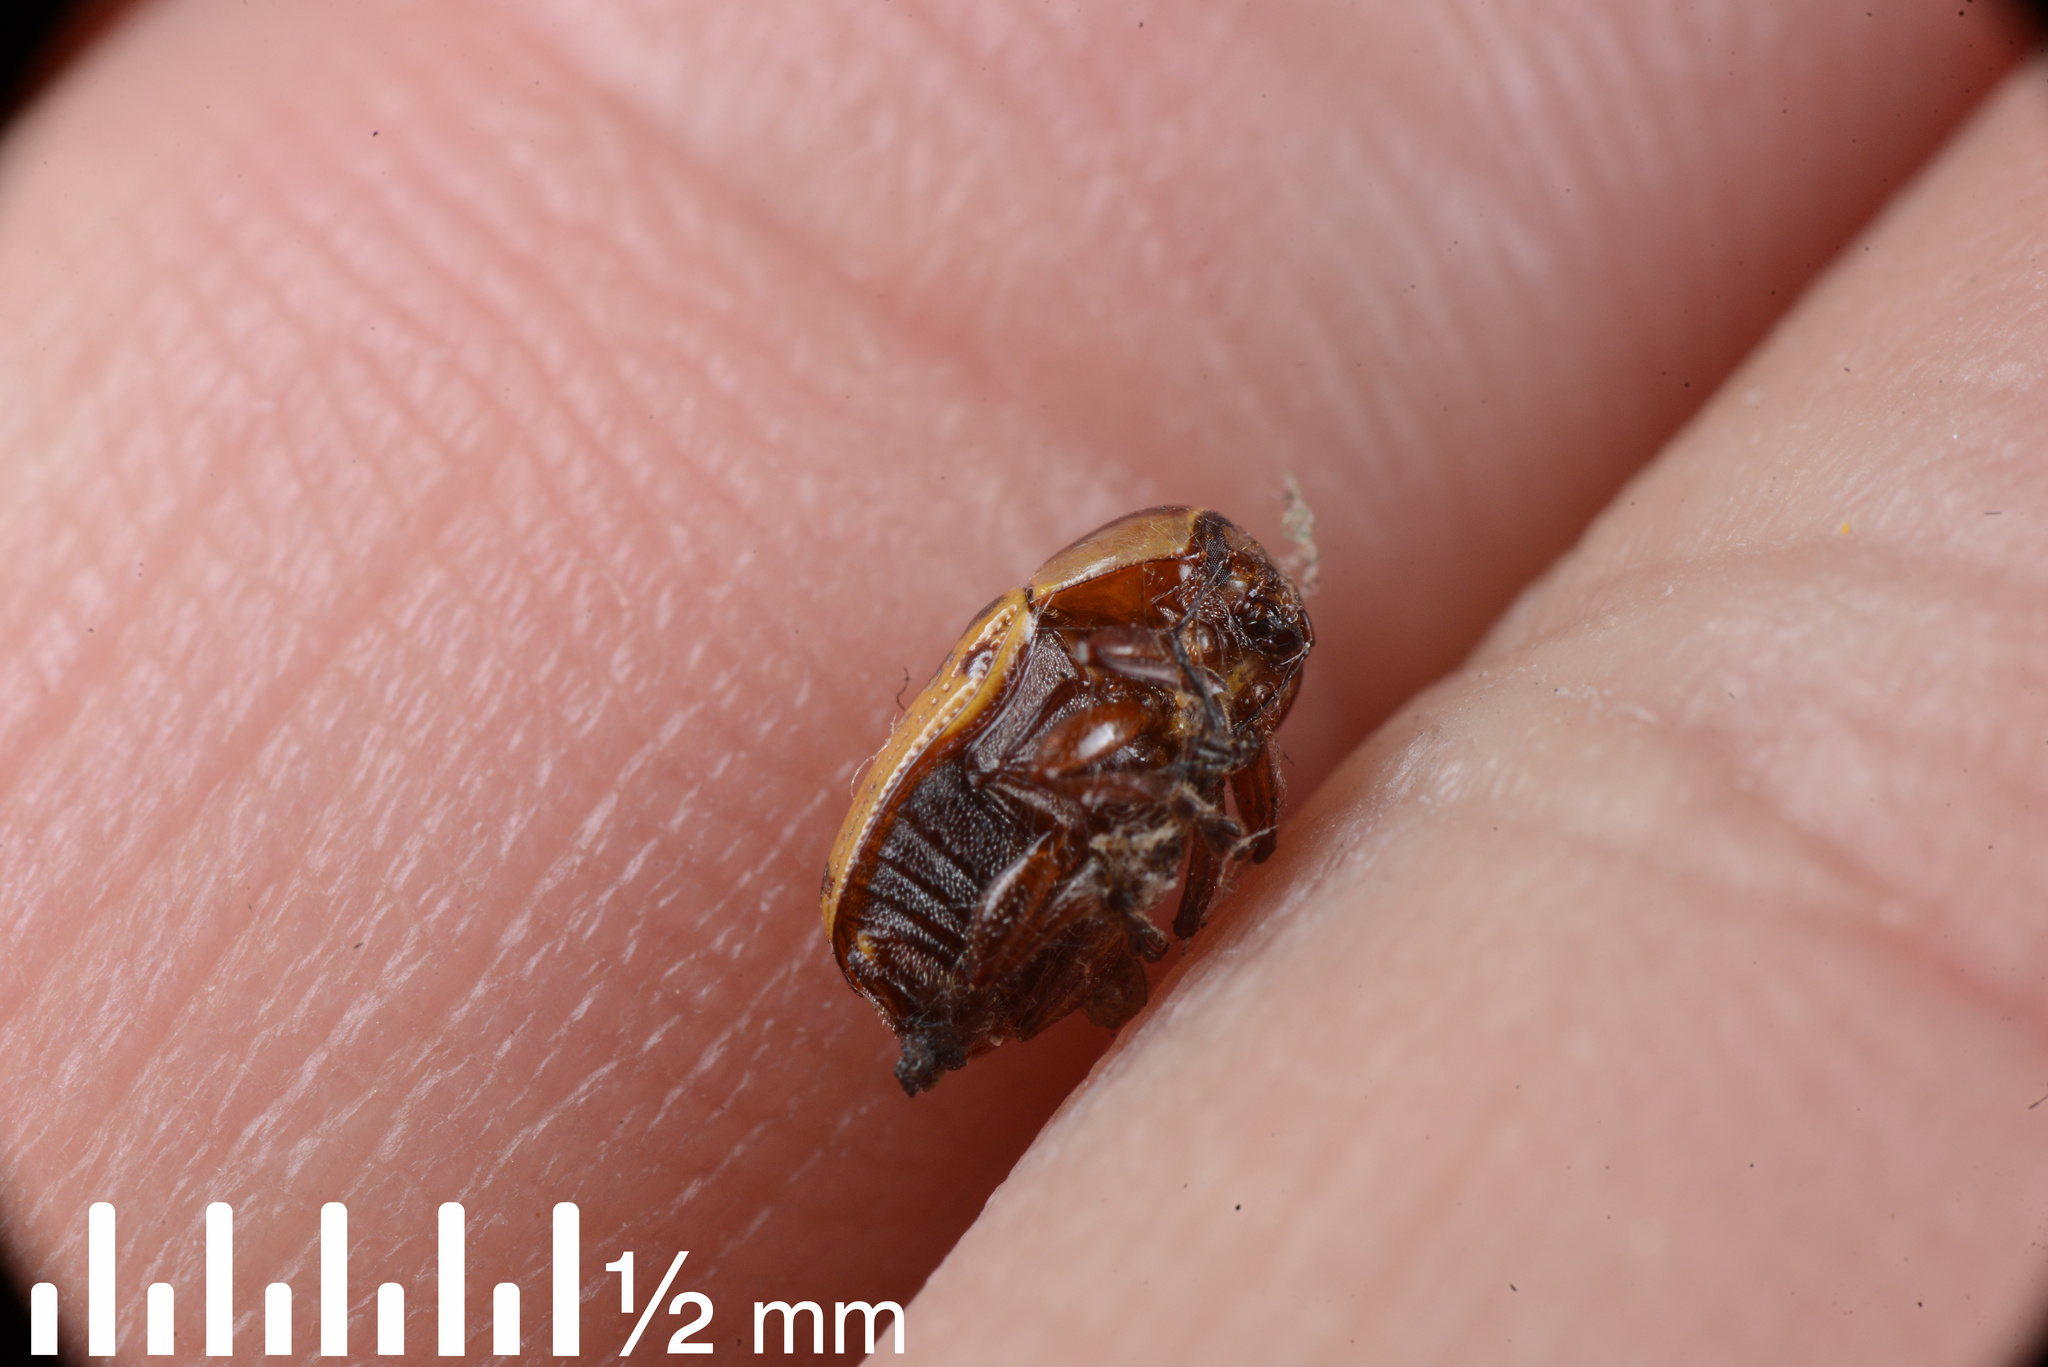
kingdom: Animalia
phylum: Arthropoda
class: Insecta
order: Coleoptera
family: Chrysomelidae
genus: Cryptocephalus
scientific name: Cryptocephalus castaneus
